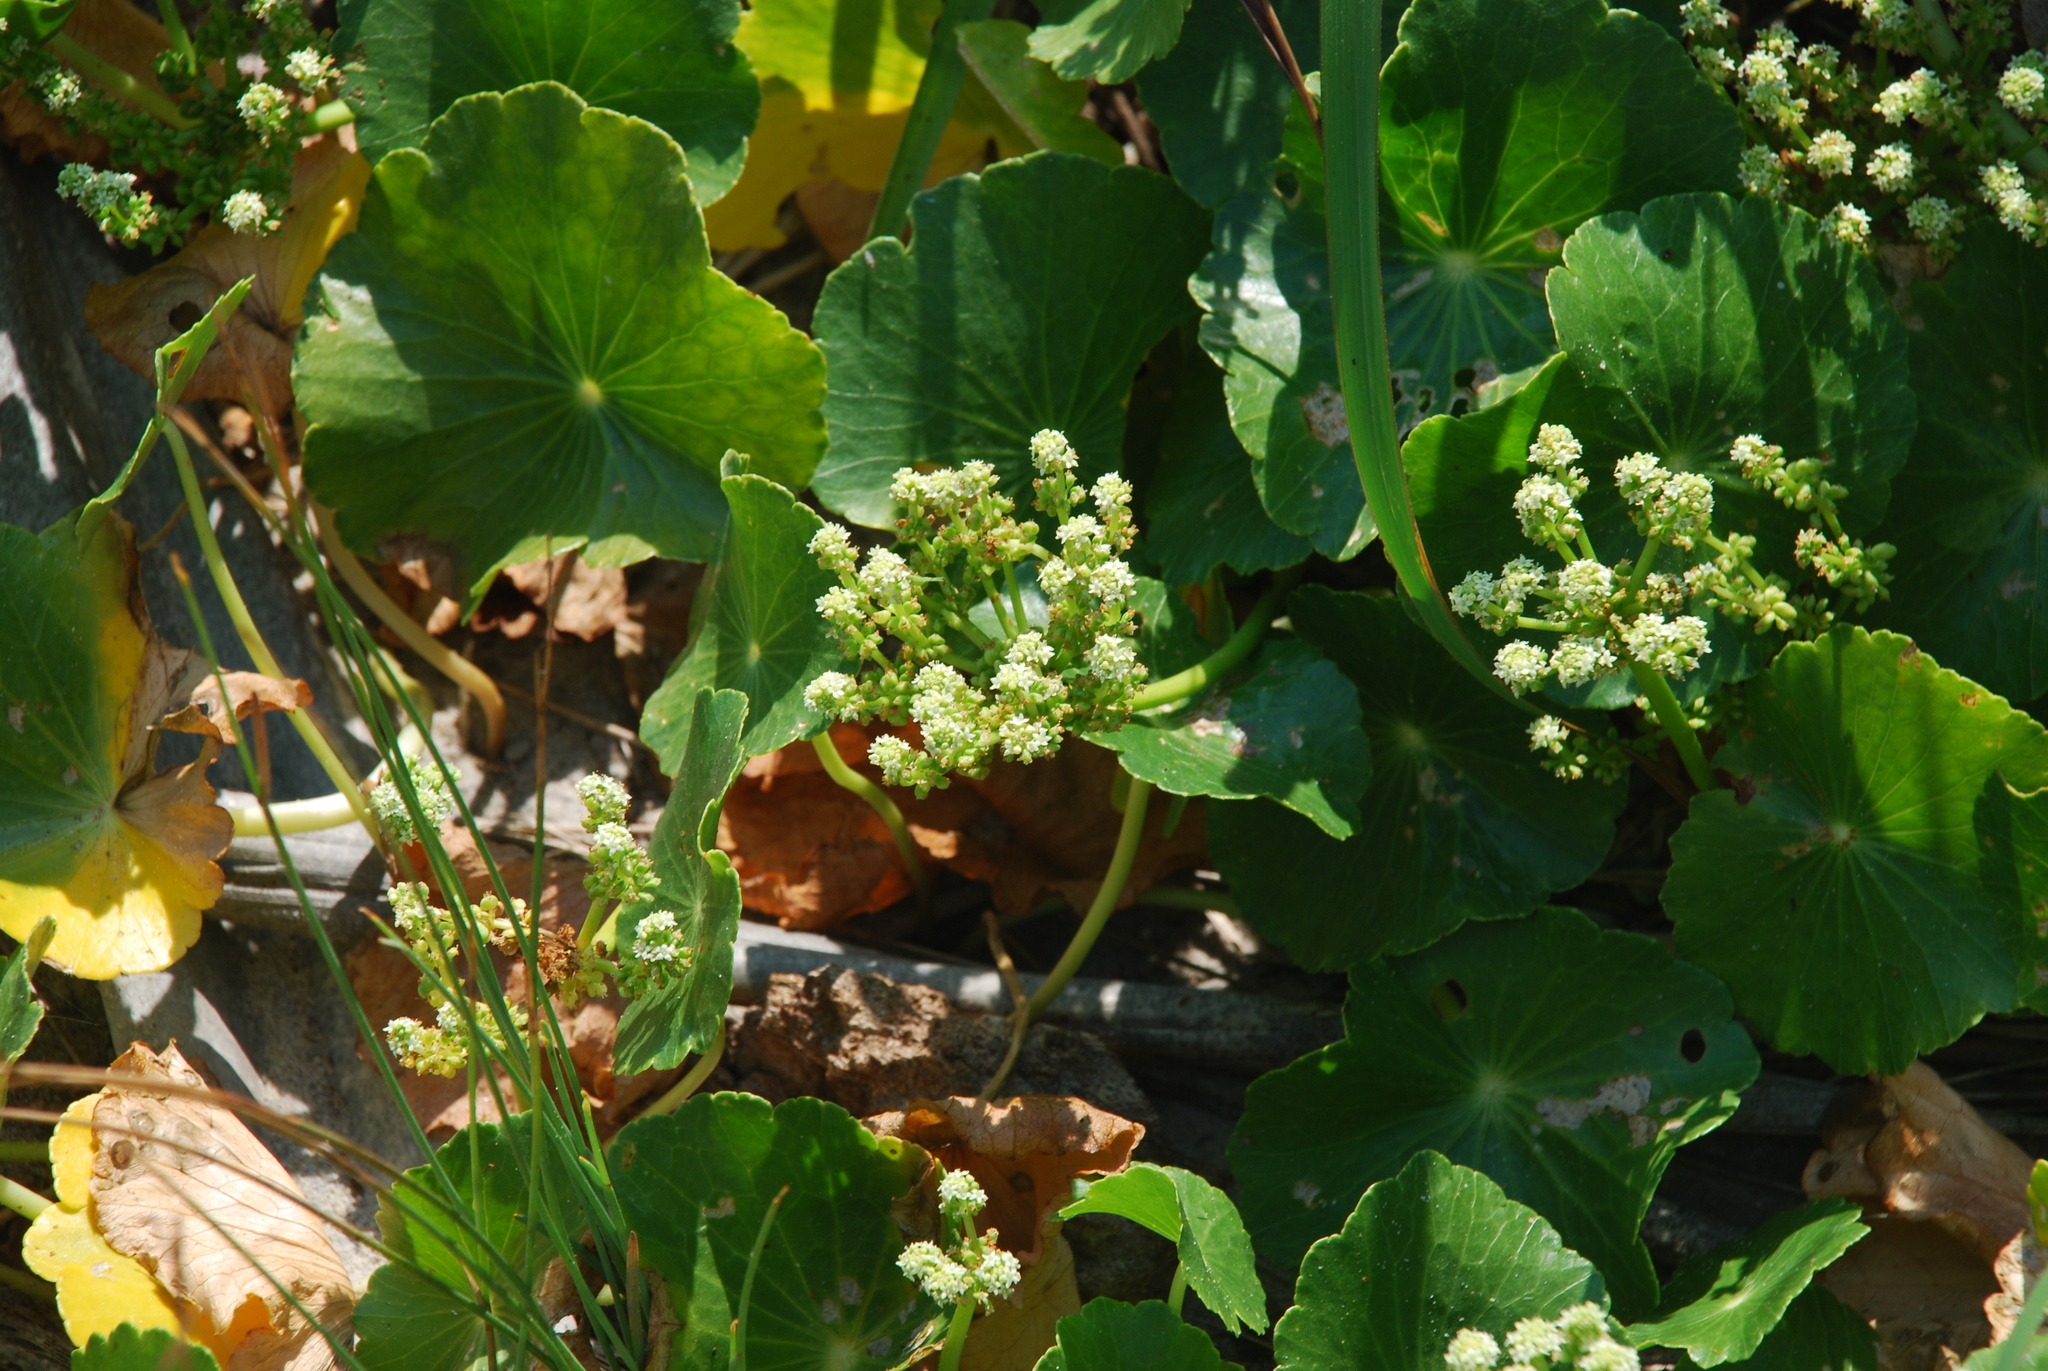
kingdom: Plantae
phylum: Tracheophyta
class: Magnoliopsida
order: Apiales
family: Araliaceae
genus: Hydrocotyle
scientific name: Hydrocotyle bonariensis
